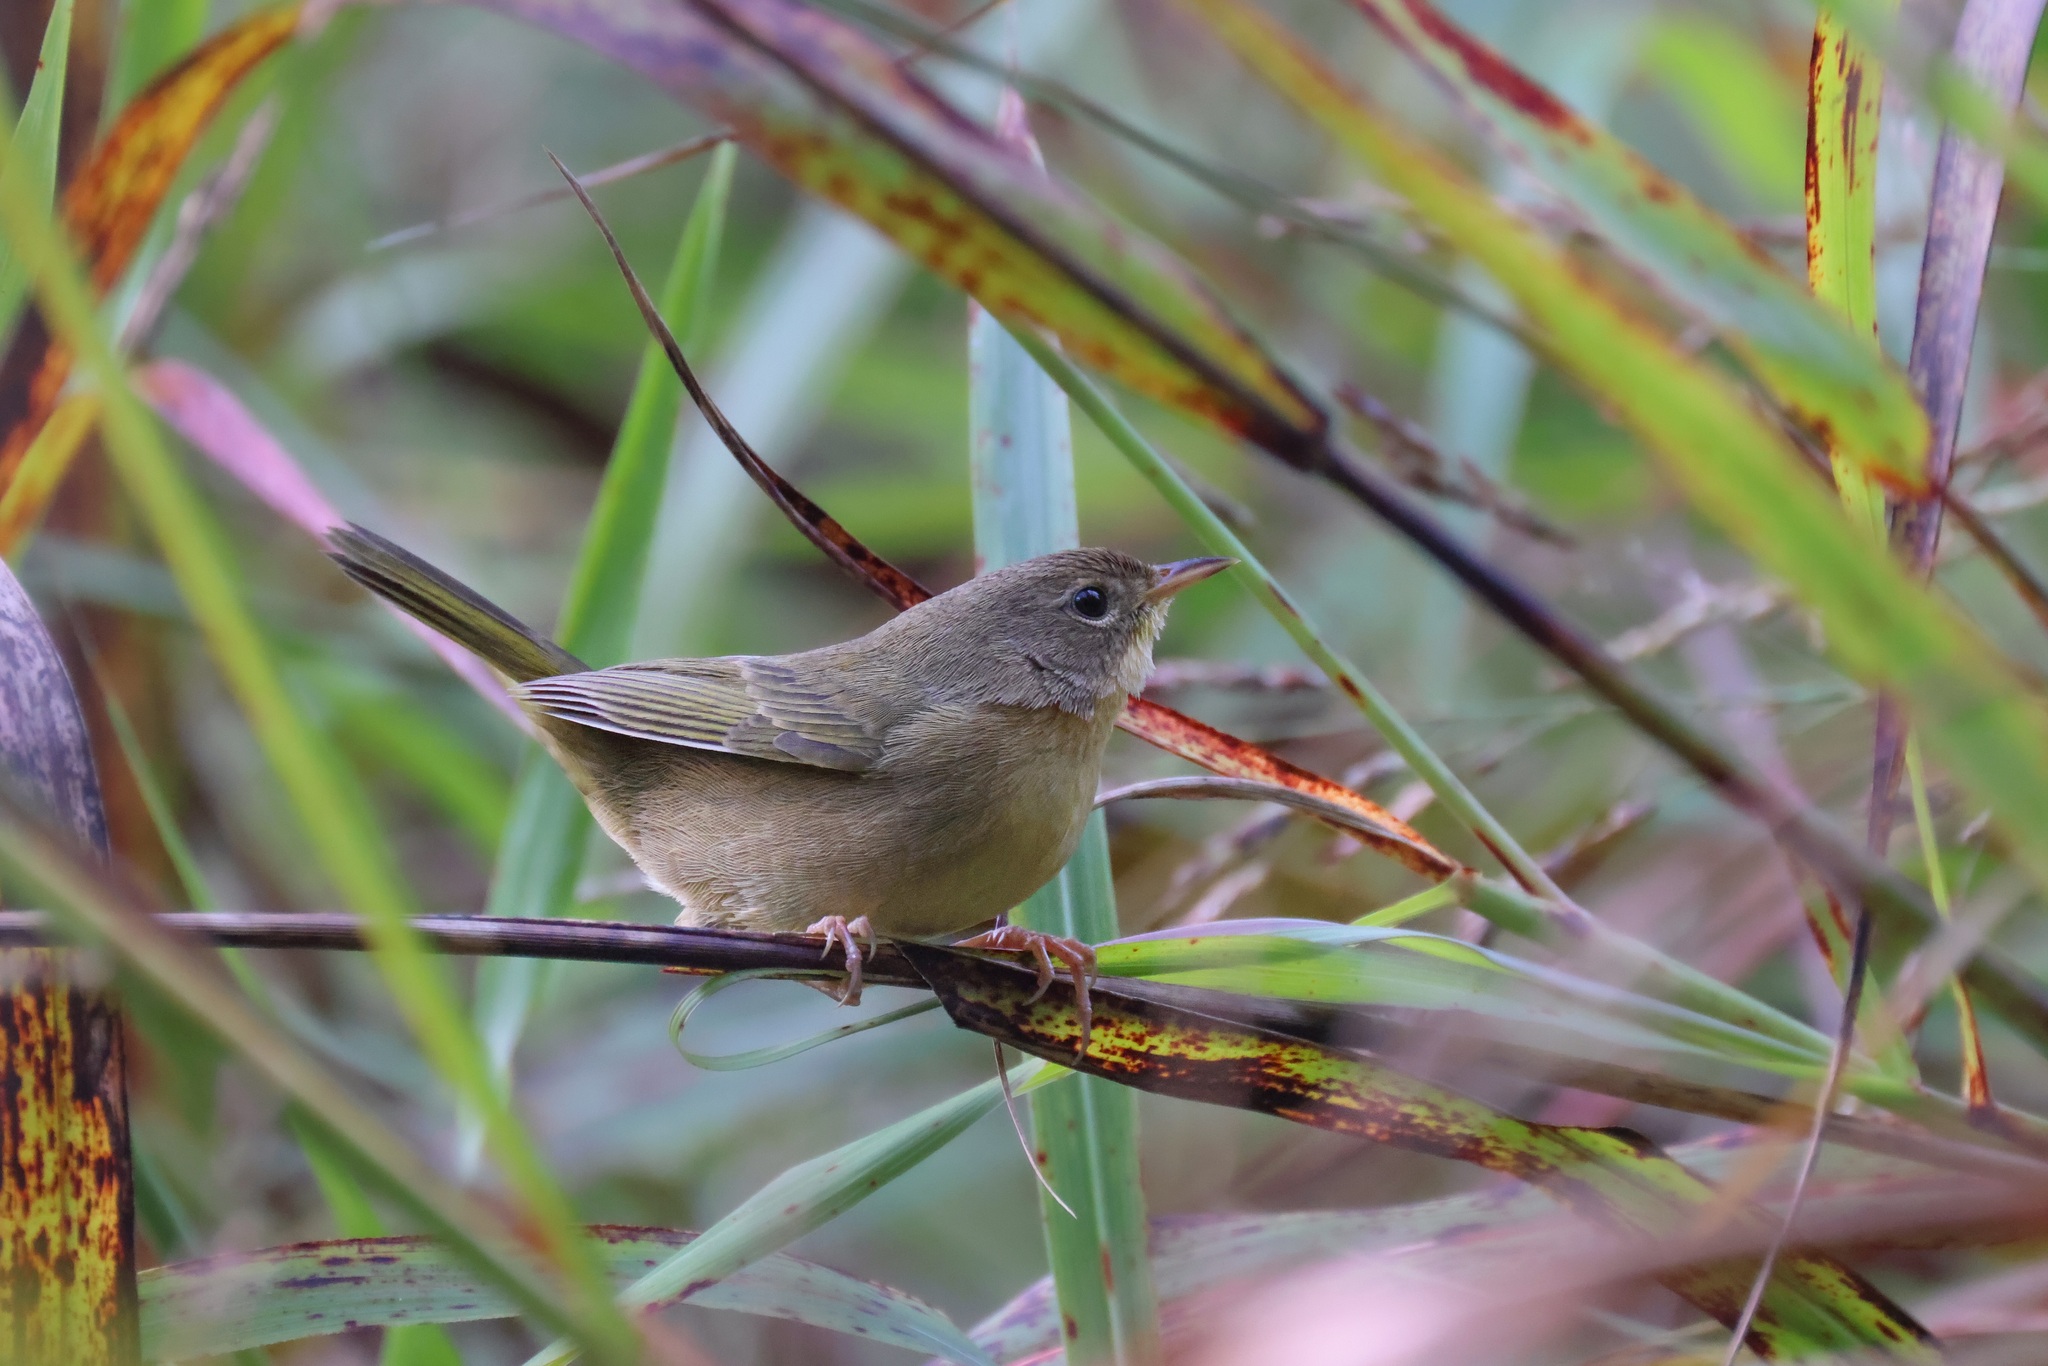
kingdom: Animalia
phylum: Chordata
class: Aves
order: Passeriformes
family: Parulidae
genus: Geothlypis
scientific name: Geothlypis trichas
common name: Common yellowthroat
